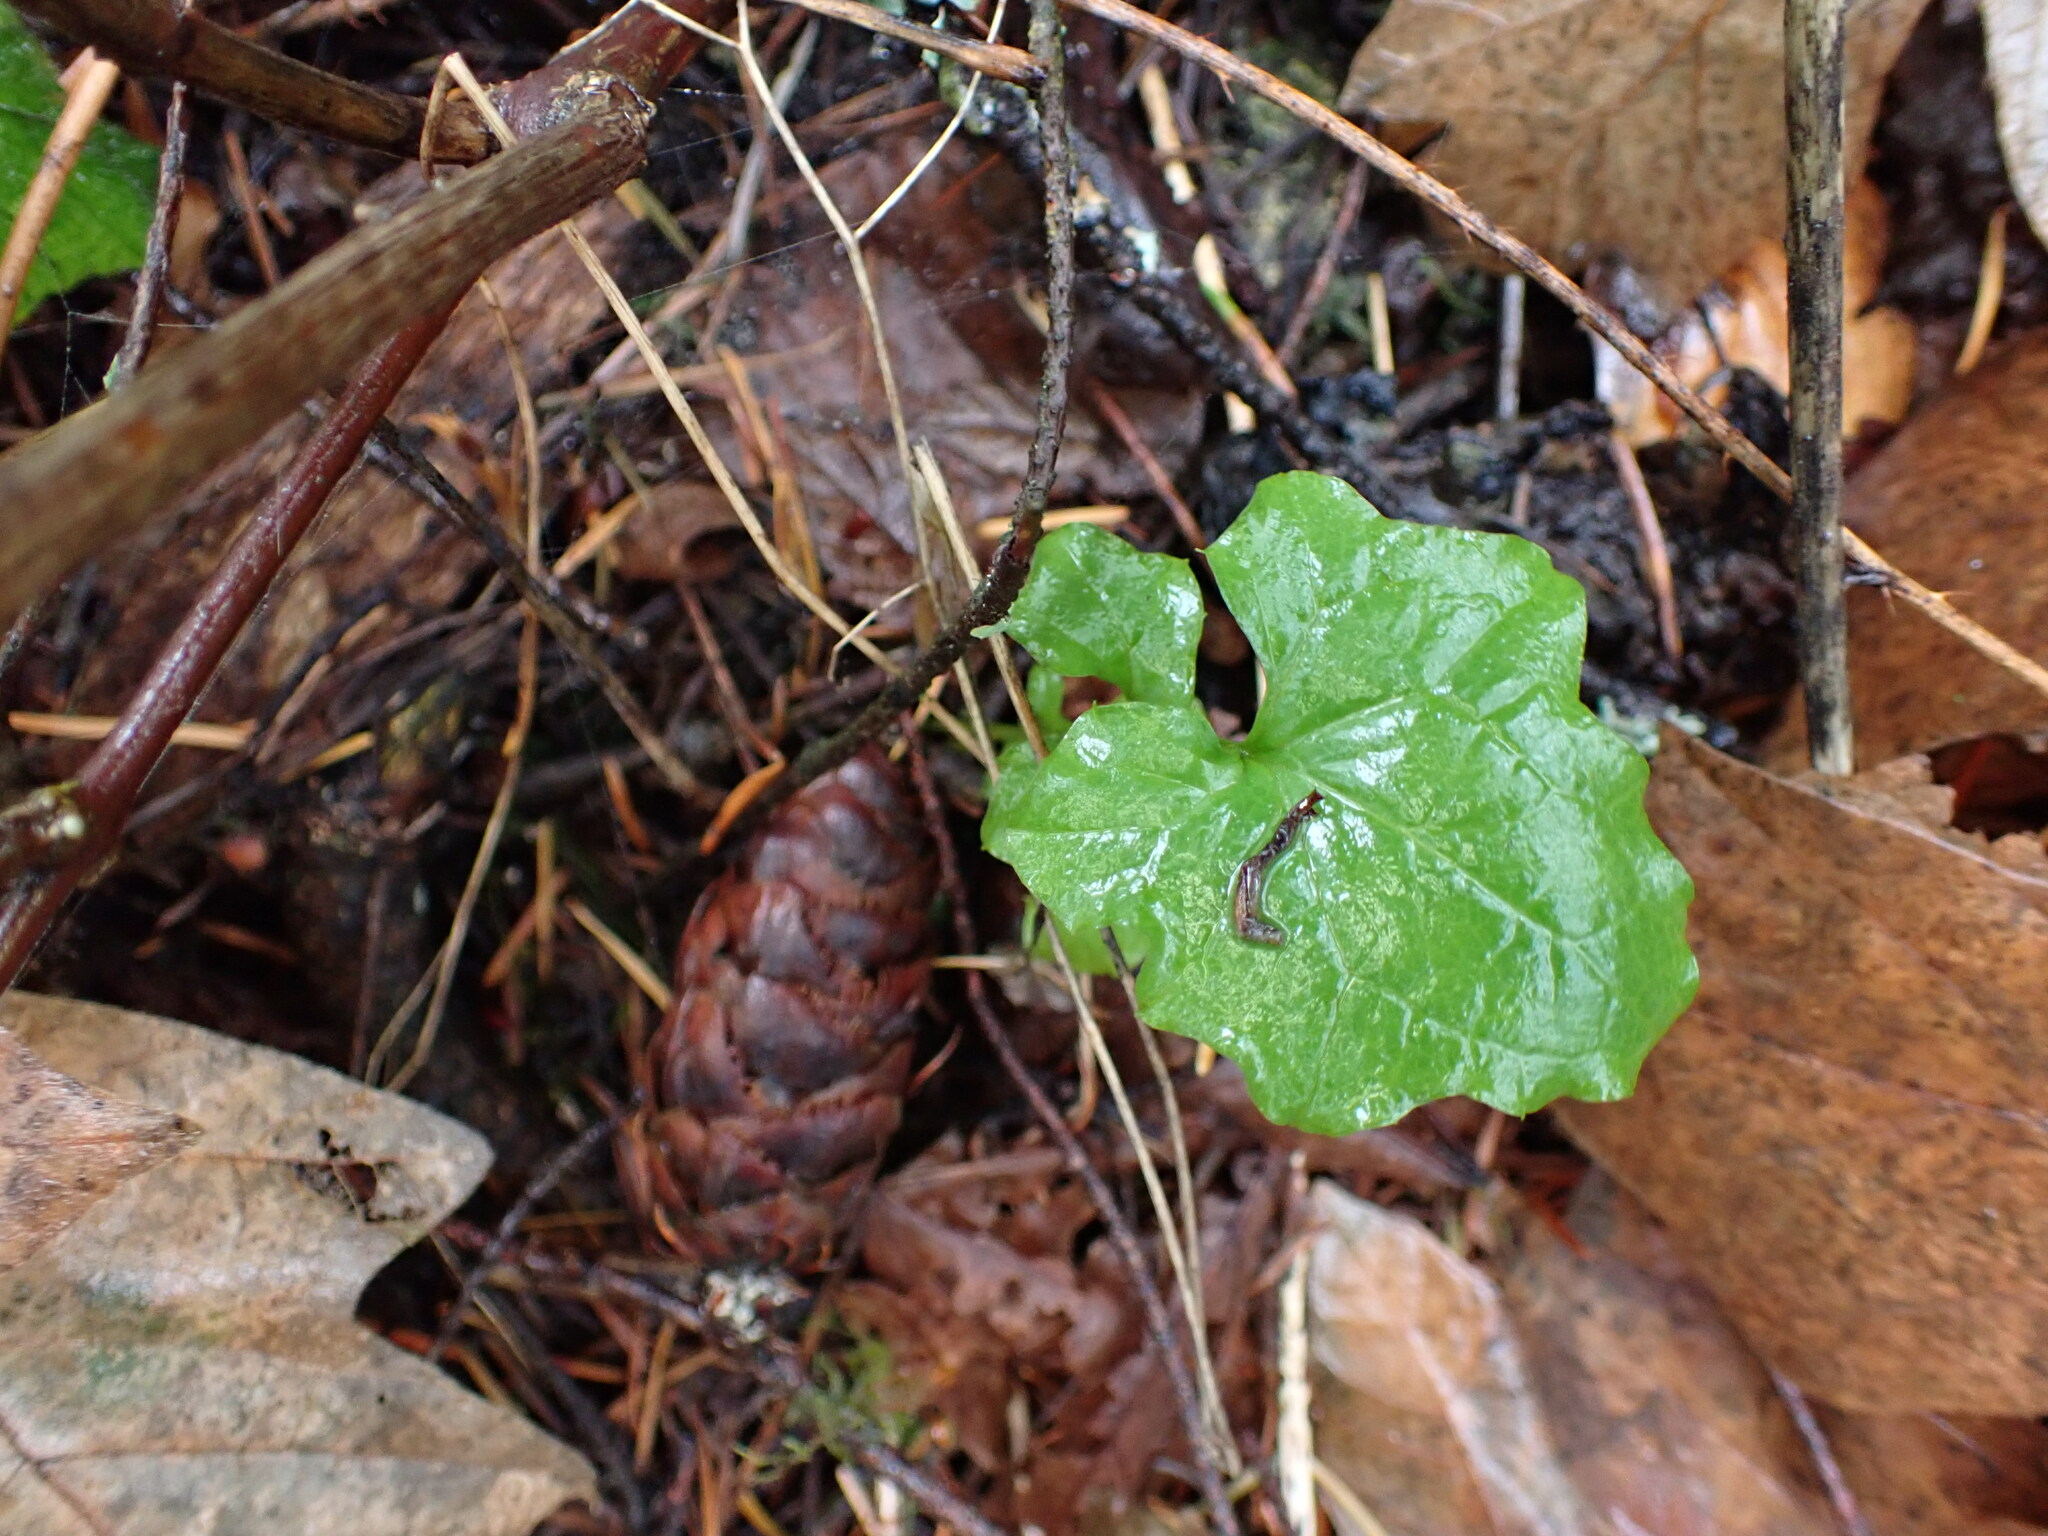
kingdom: Plantae
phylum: Tracheophyta
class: Magnoliopsida
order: Asterales
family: Asteraceae
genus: Mycelis
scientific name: Mycelis muralis
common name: Wall lettuce
